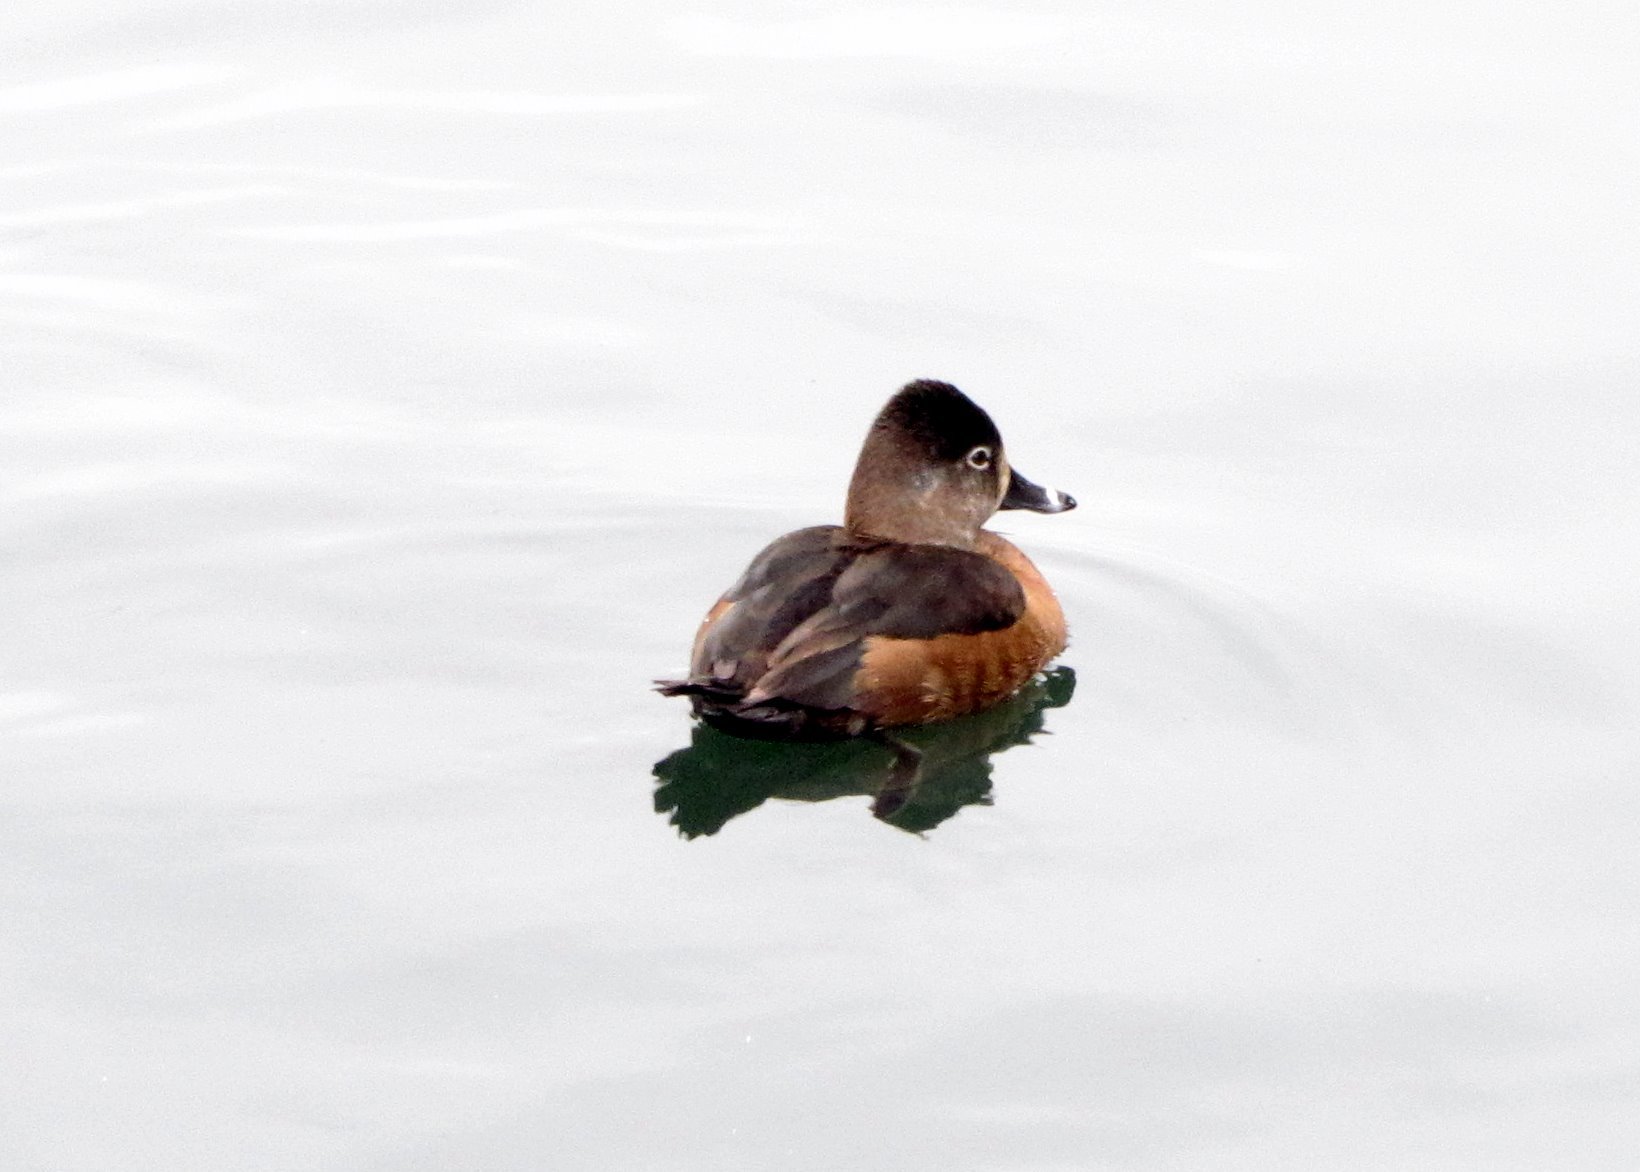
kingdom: Animalia
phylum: Chordata
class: Aves
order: Anseriformes
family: Anatidae
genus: Aythya
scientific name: Aythya collaris
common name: Ring-necked duck
